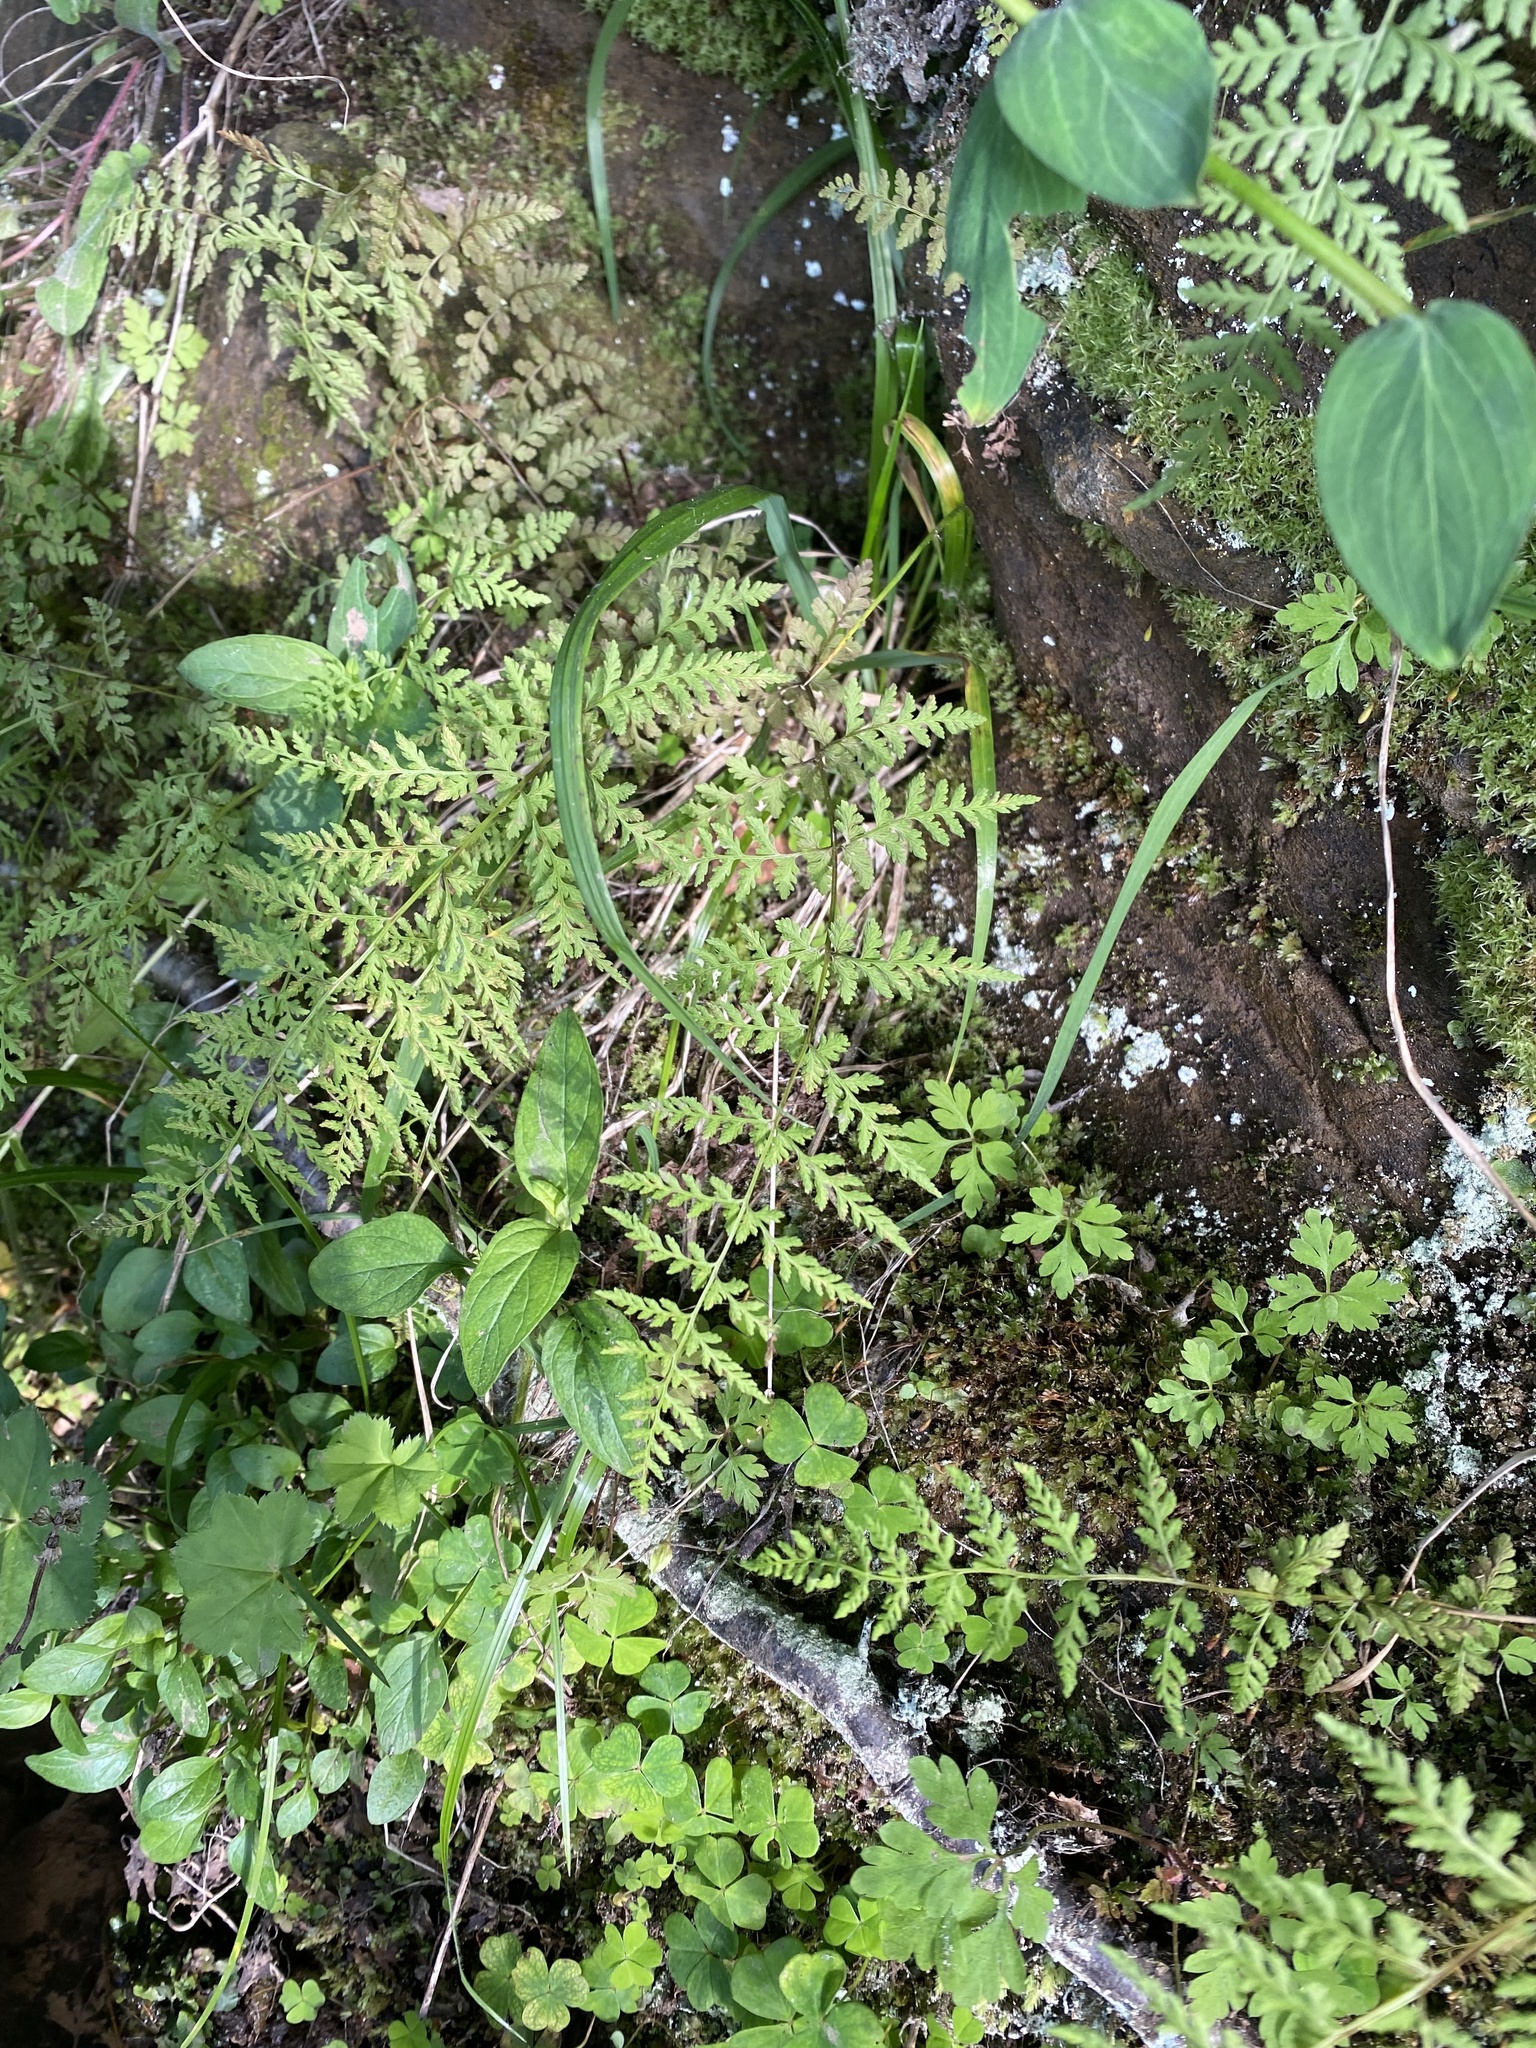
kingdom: Plantae
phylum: Tracheophyta
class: Polypodiopsida
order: Polypodiales
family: Cystopteridaceae
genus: Cystopteris
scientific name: Cystopteris fragilis
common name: Brittle bladder fern
